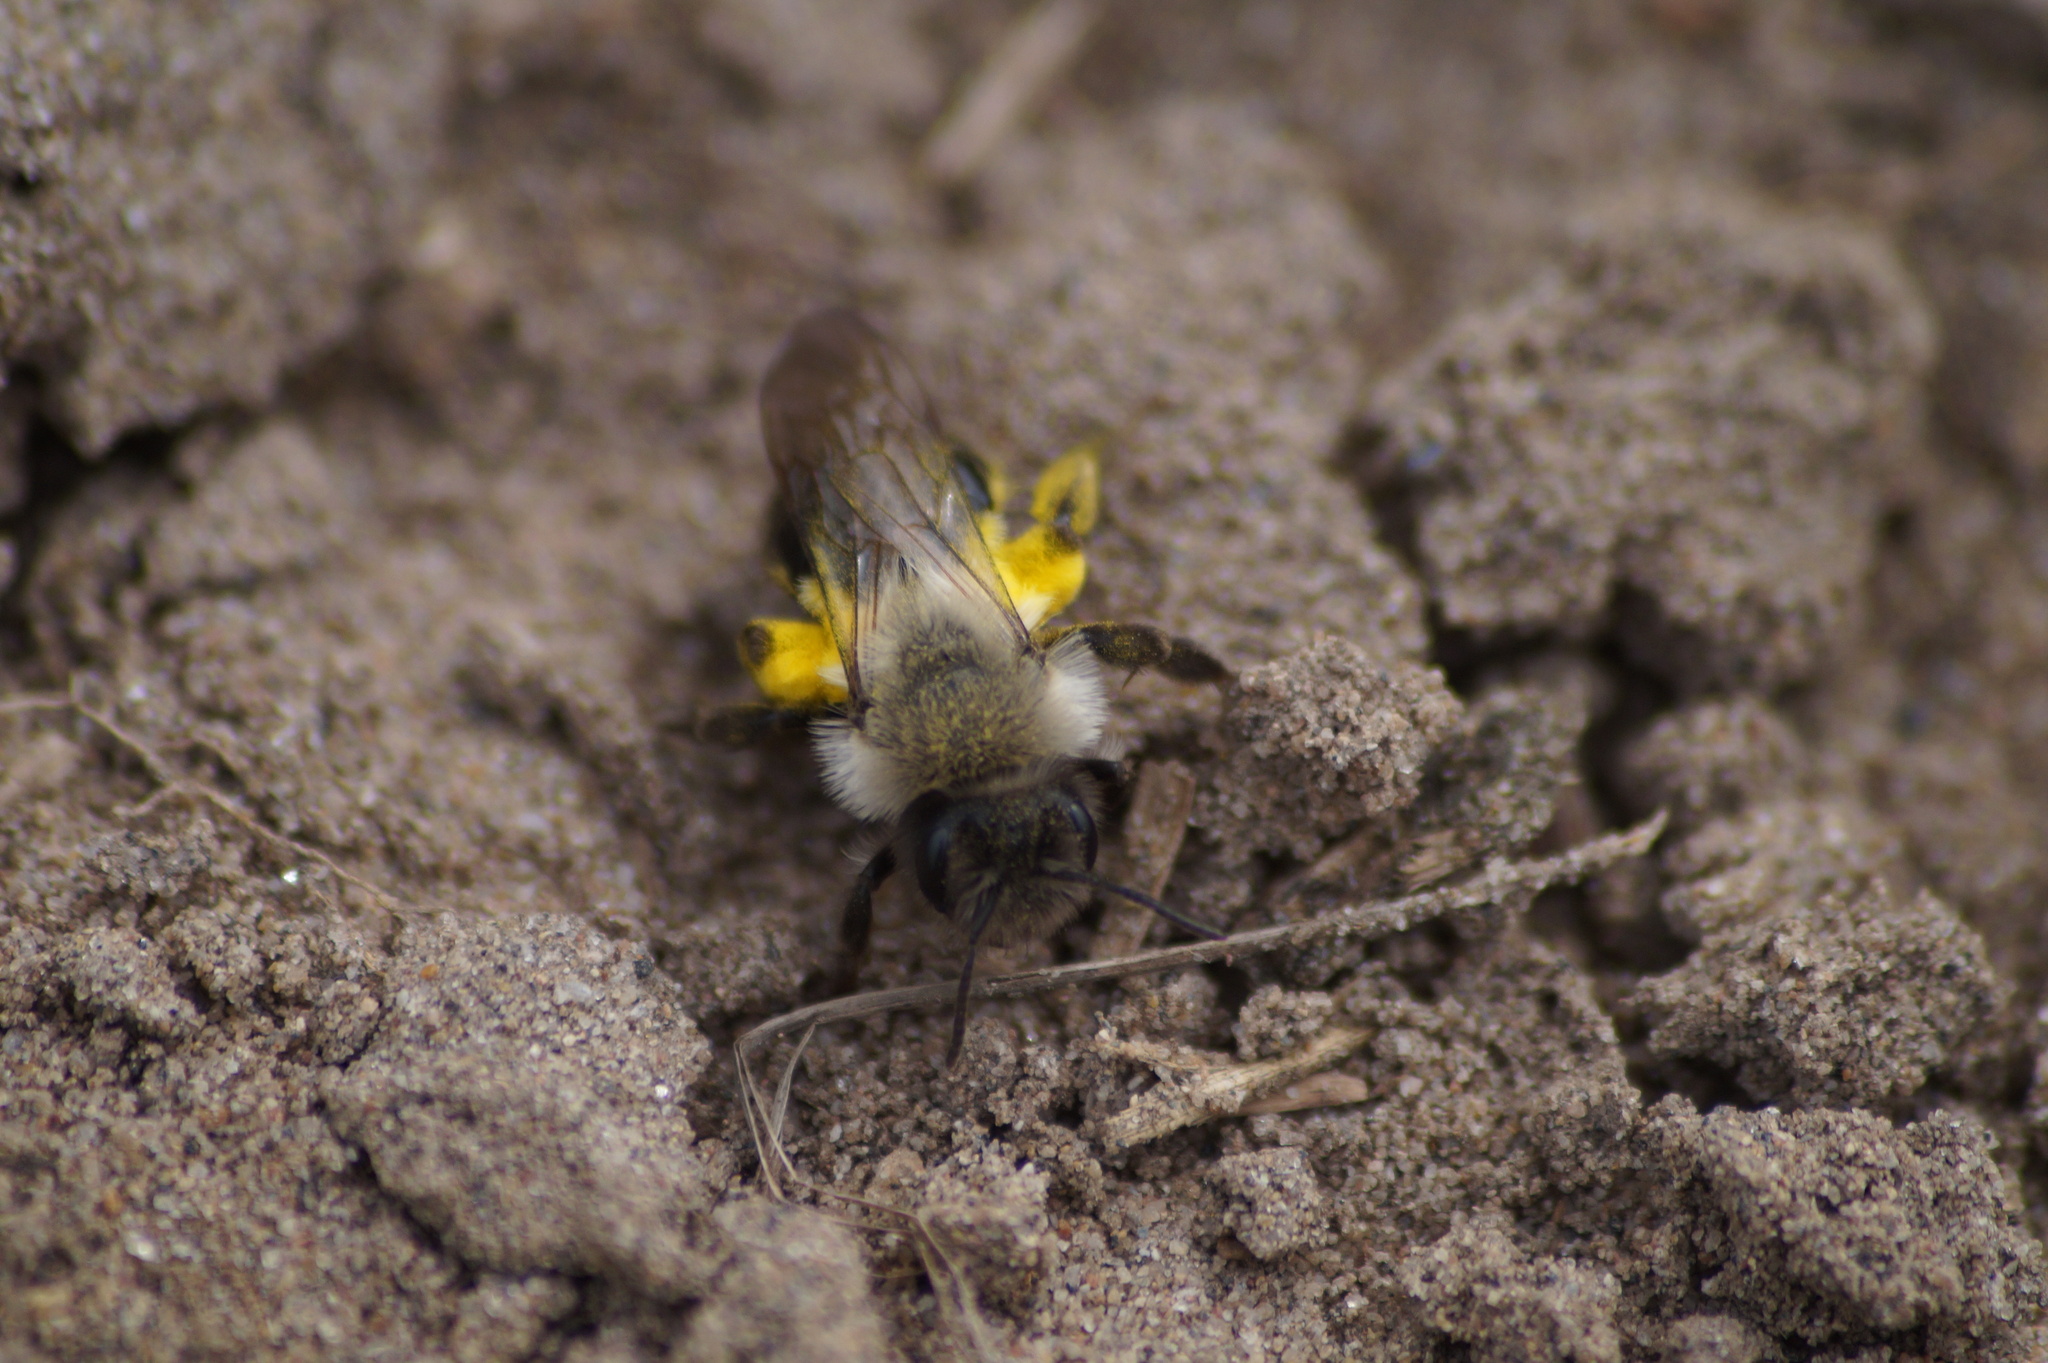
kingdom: Animalia
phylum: Arthropoda
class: Insecta
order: Hymenoptera
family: Andrenidae
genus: Andrena
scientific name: Andrena vaga
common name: Grey-backed mining bee
